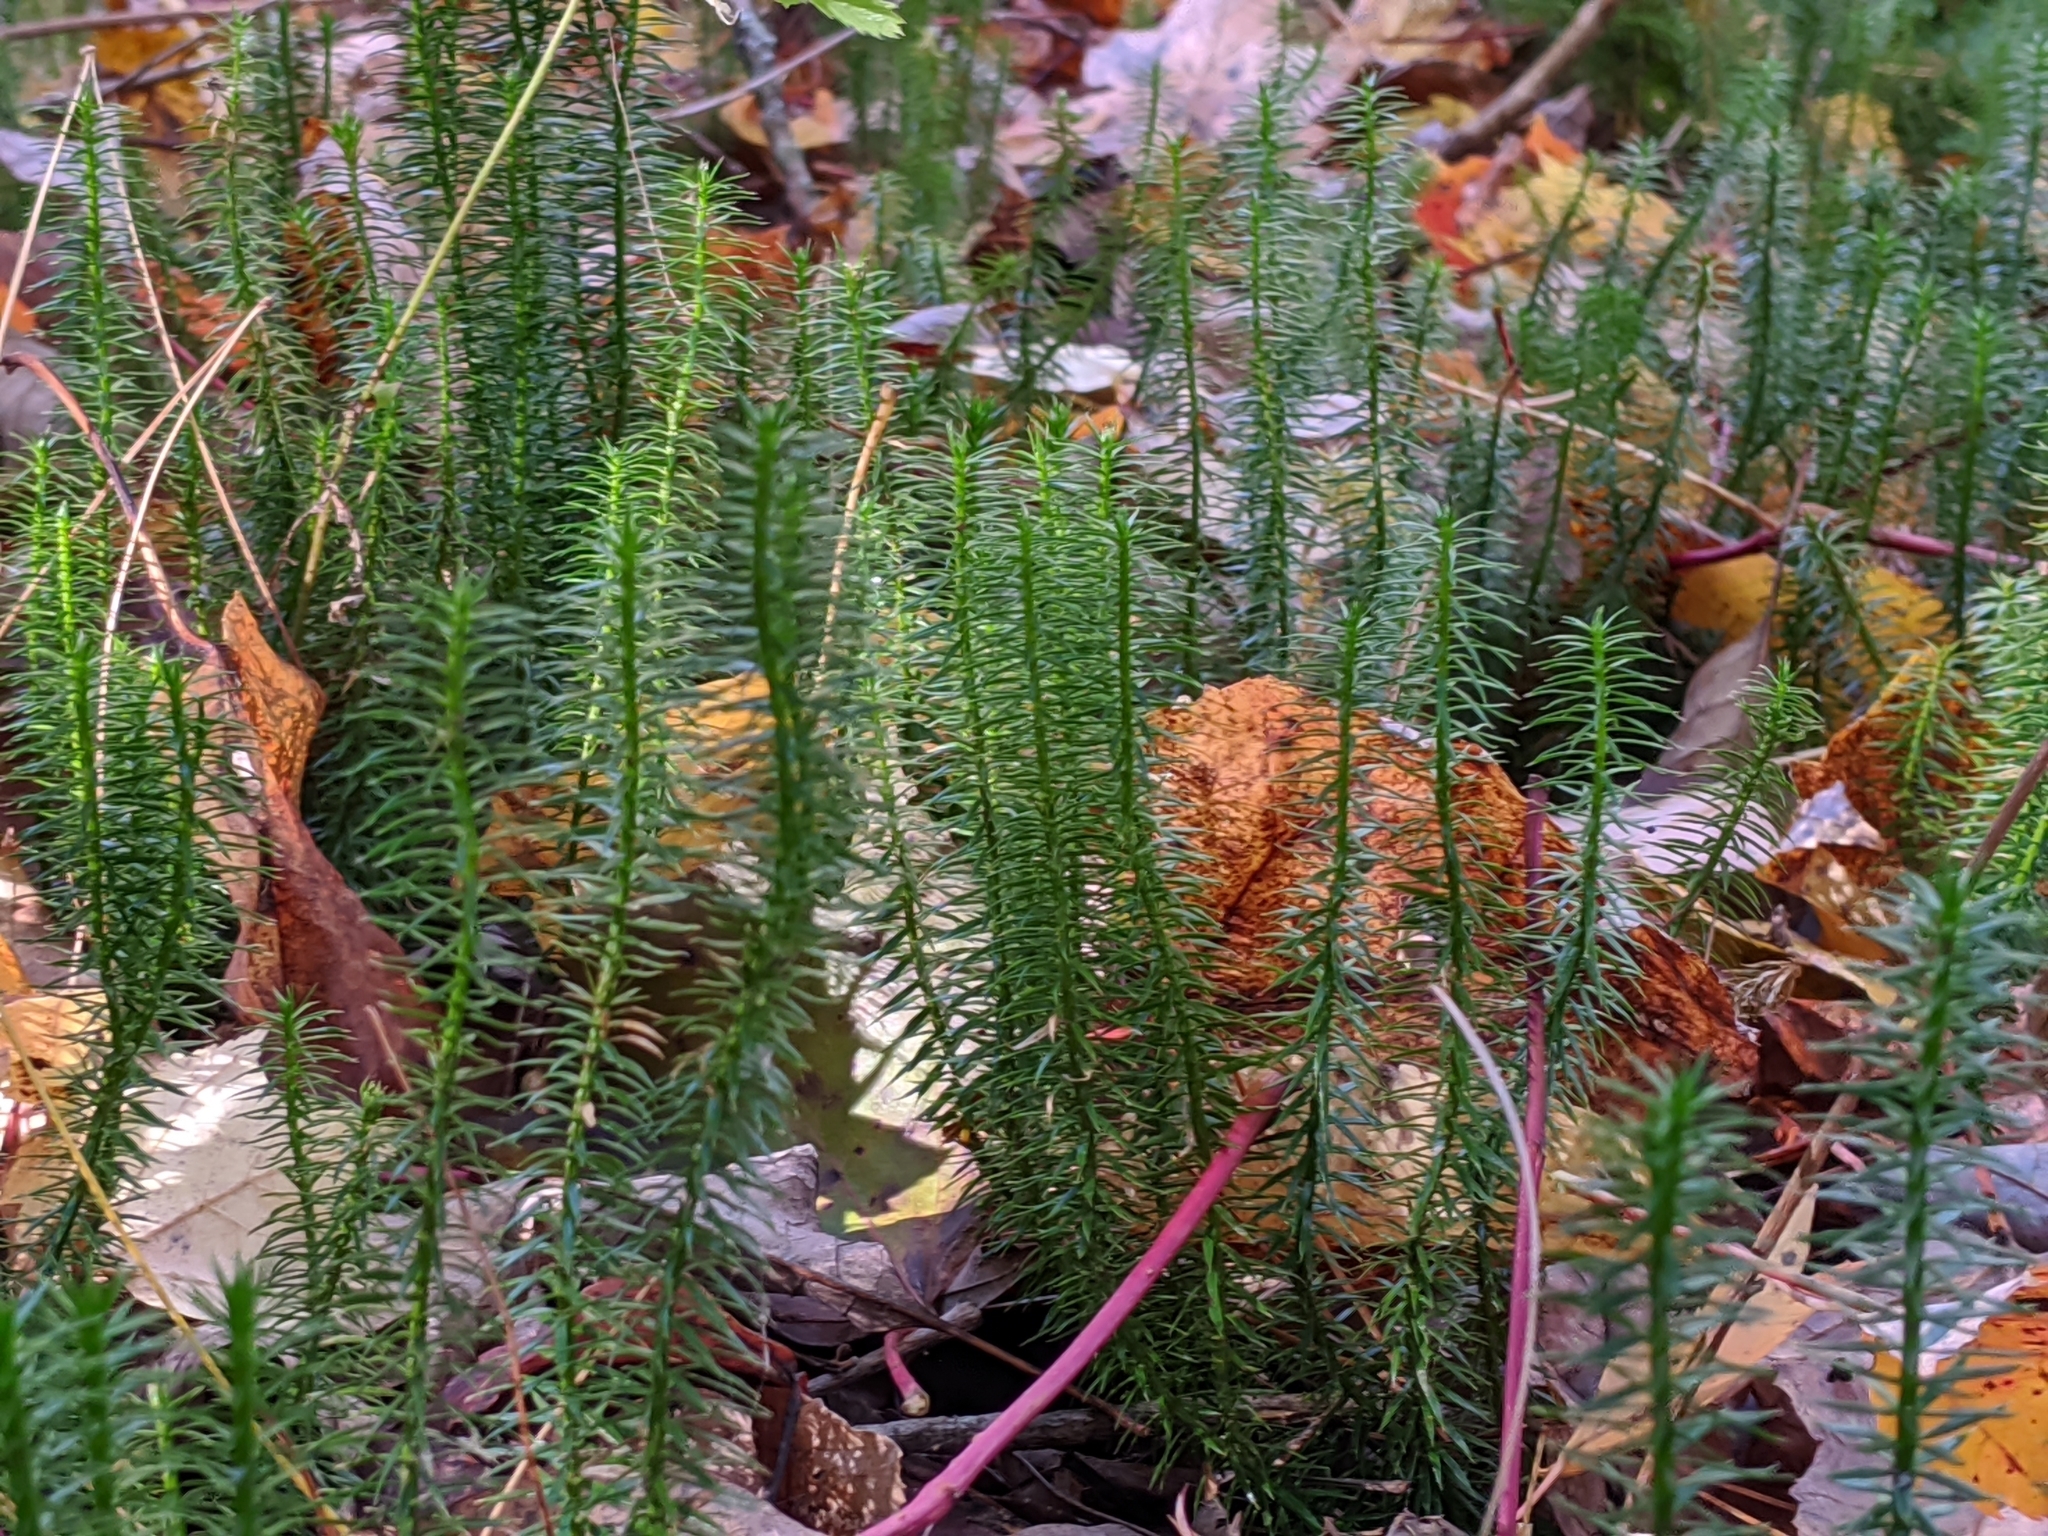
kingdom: Plantae
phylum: Tracheophyta
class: Lycopodiopsida
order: Lycopodiales
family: Lycopodiaceae
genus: Spinulum
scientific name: Spinulum annotinum
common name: Interrupted club-moss
